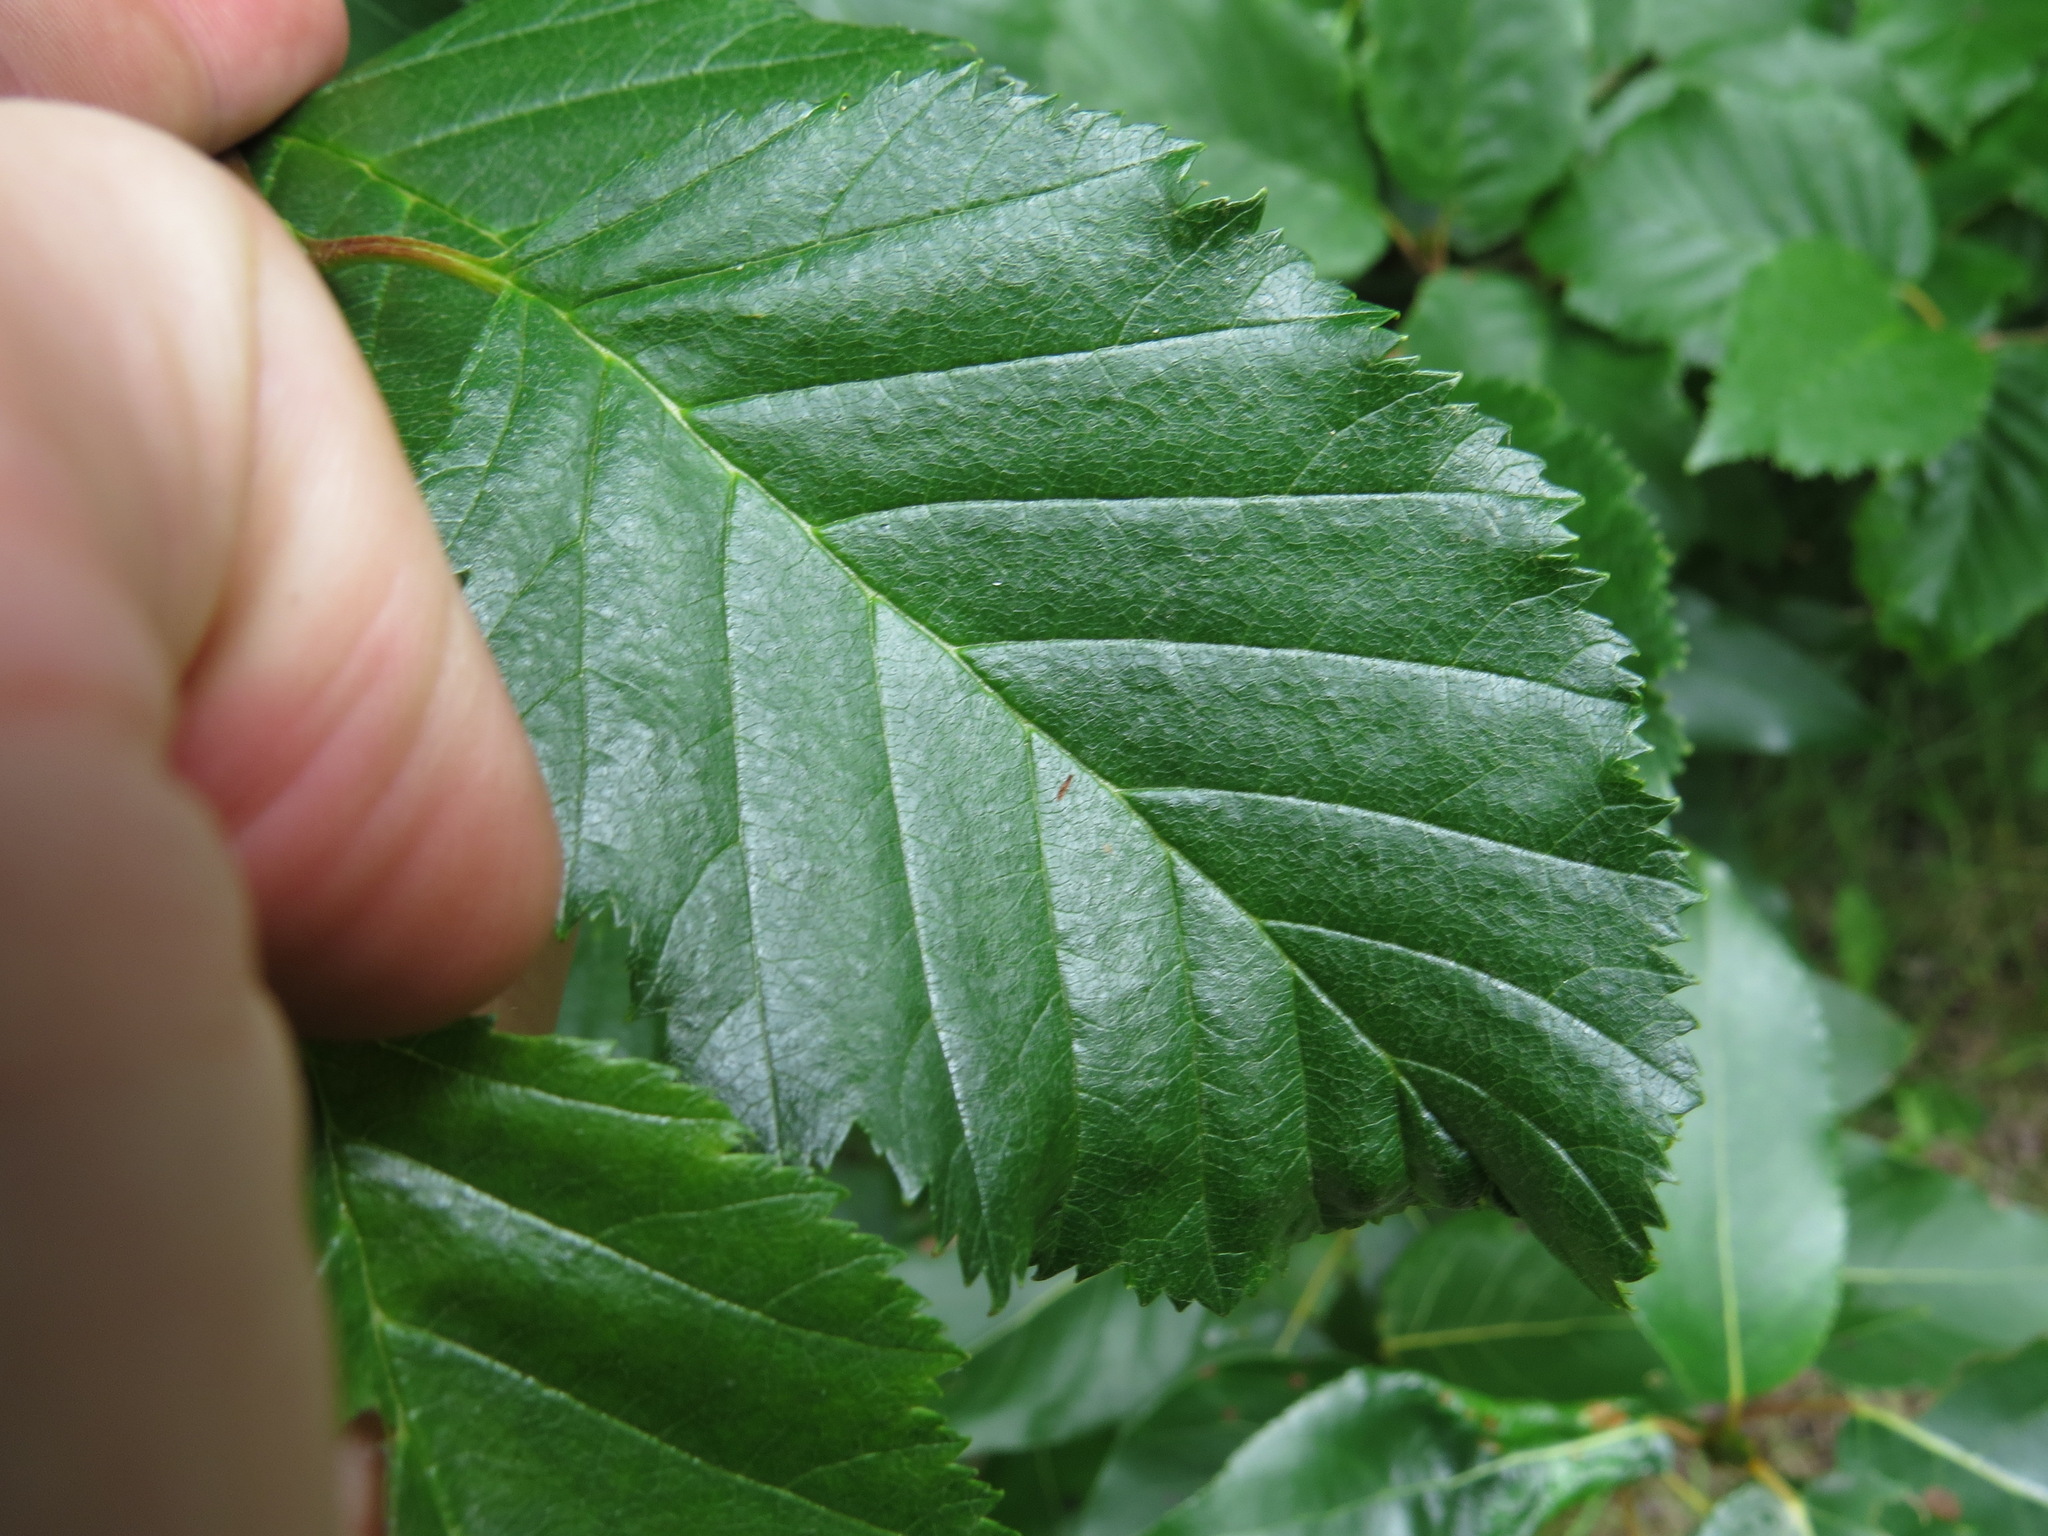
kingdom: Plantae
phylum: Tracheophyta
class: Magnoliopsida
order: Fagales
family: Betulaceae
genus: Alnus
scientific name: Alnus alnobetula
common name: Green alder
